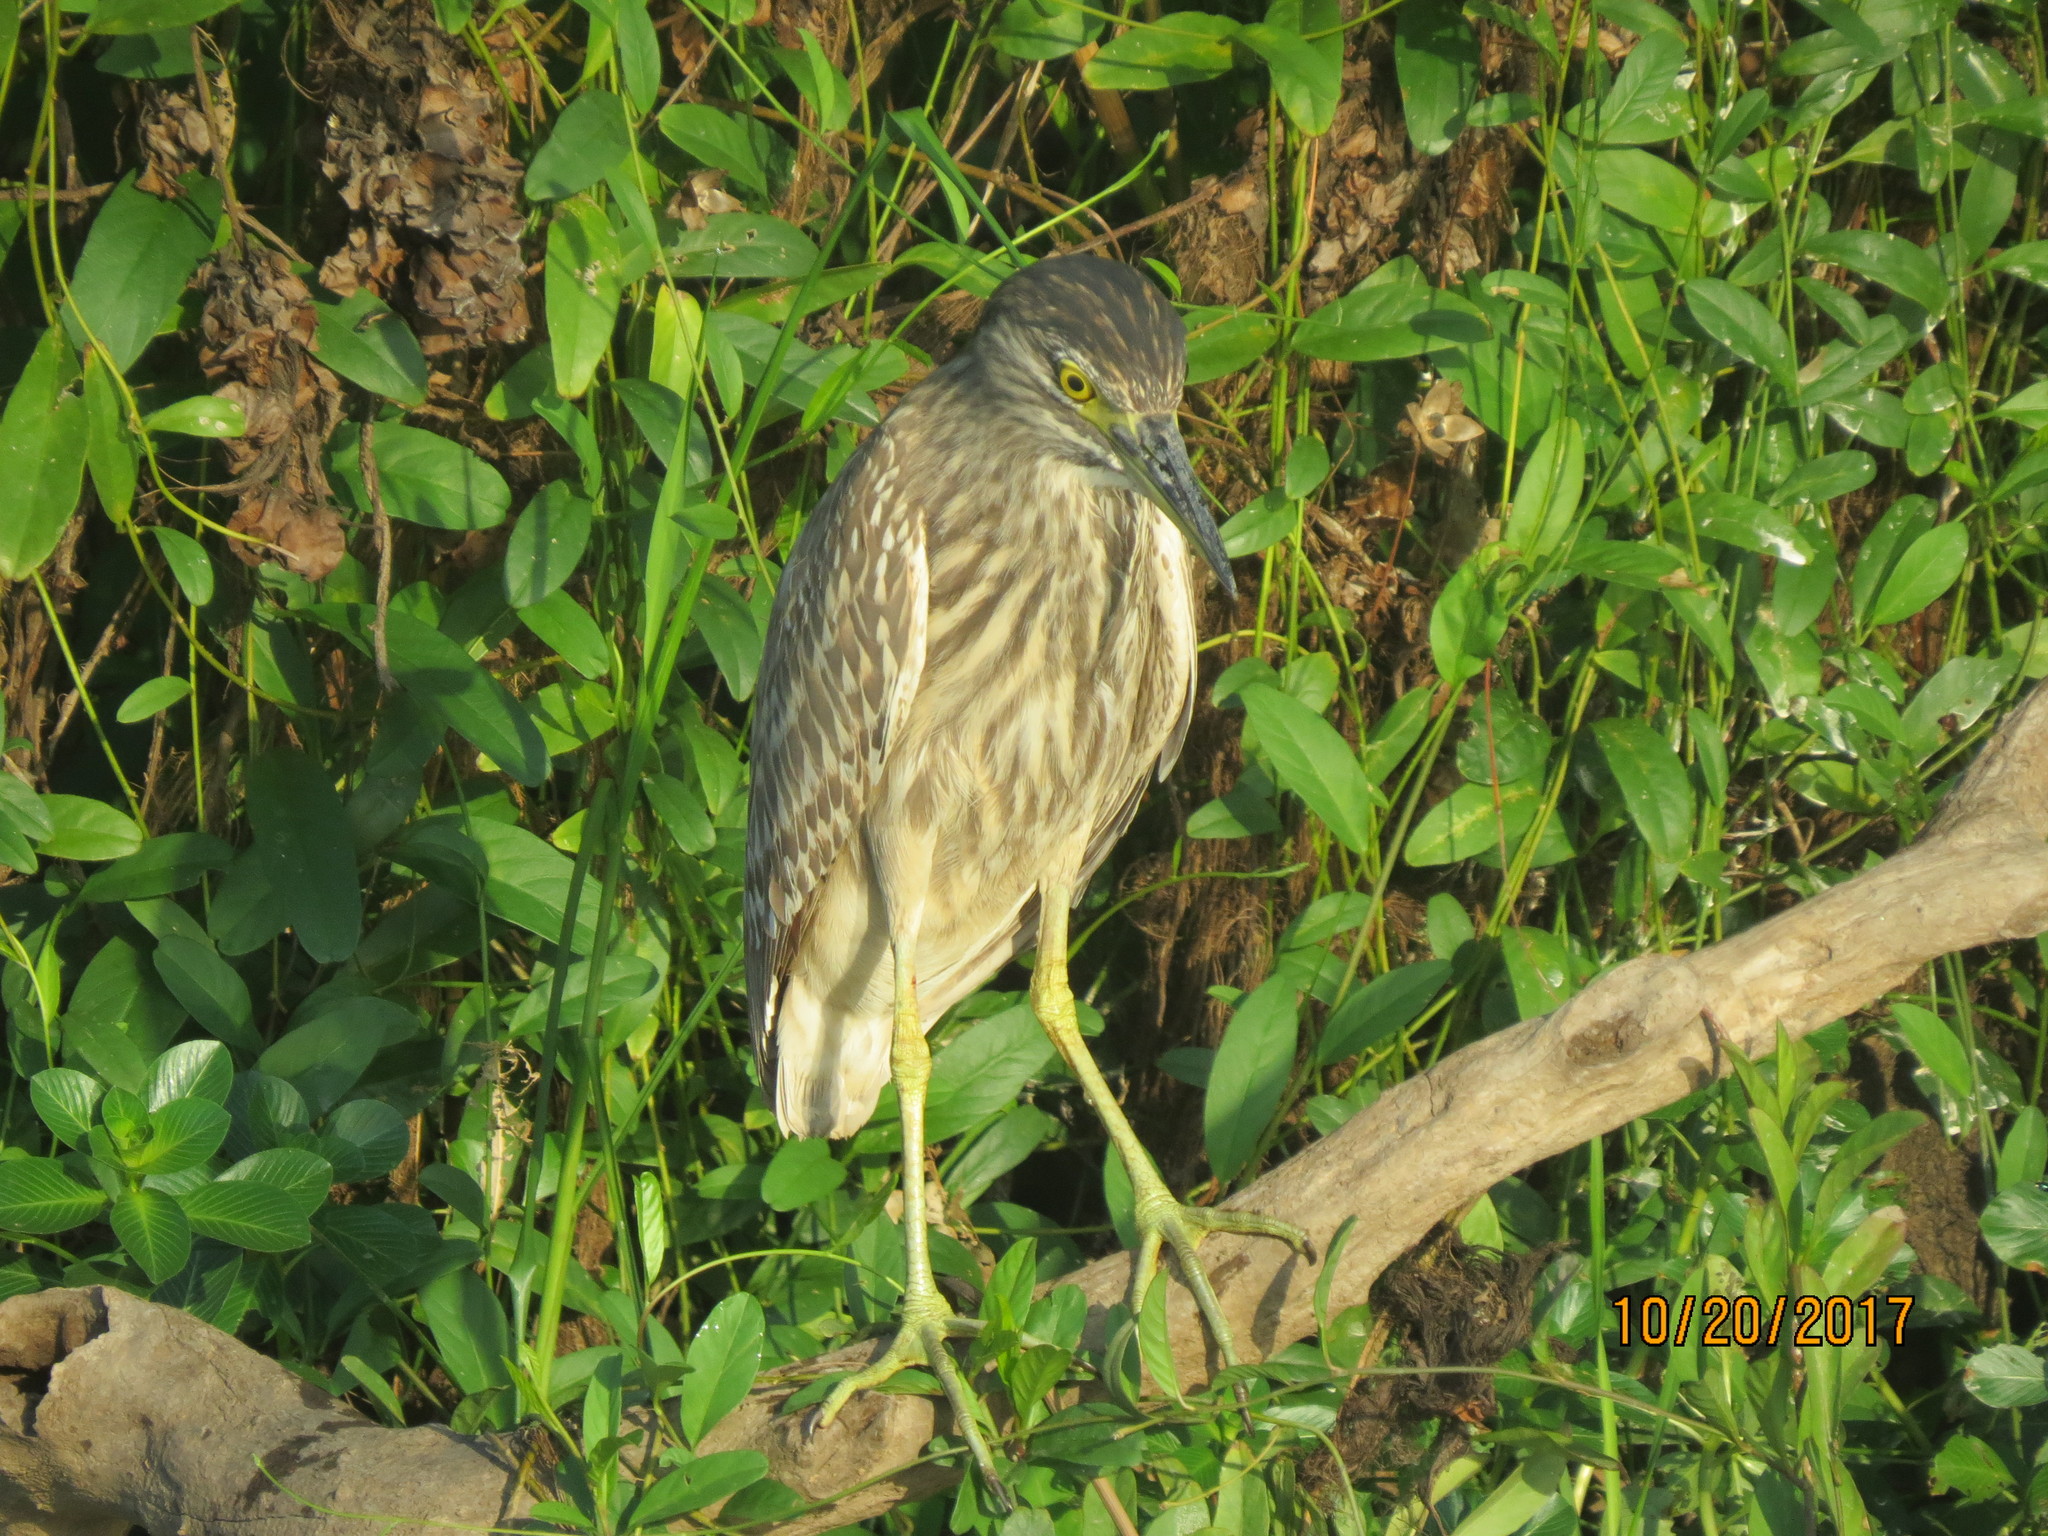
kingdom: Animalia
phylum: Chordata
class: Aves
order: Pelecaniformes
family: Ardeidae
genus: Nycticorax
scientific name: Nycticorax caledonicus
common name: Rufous night-heron
